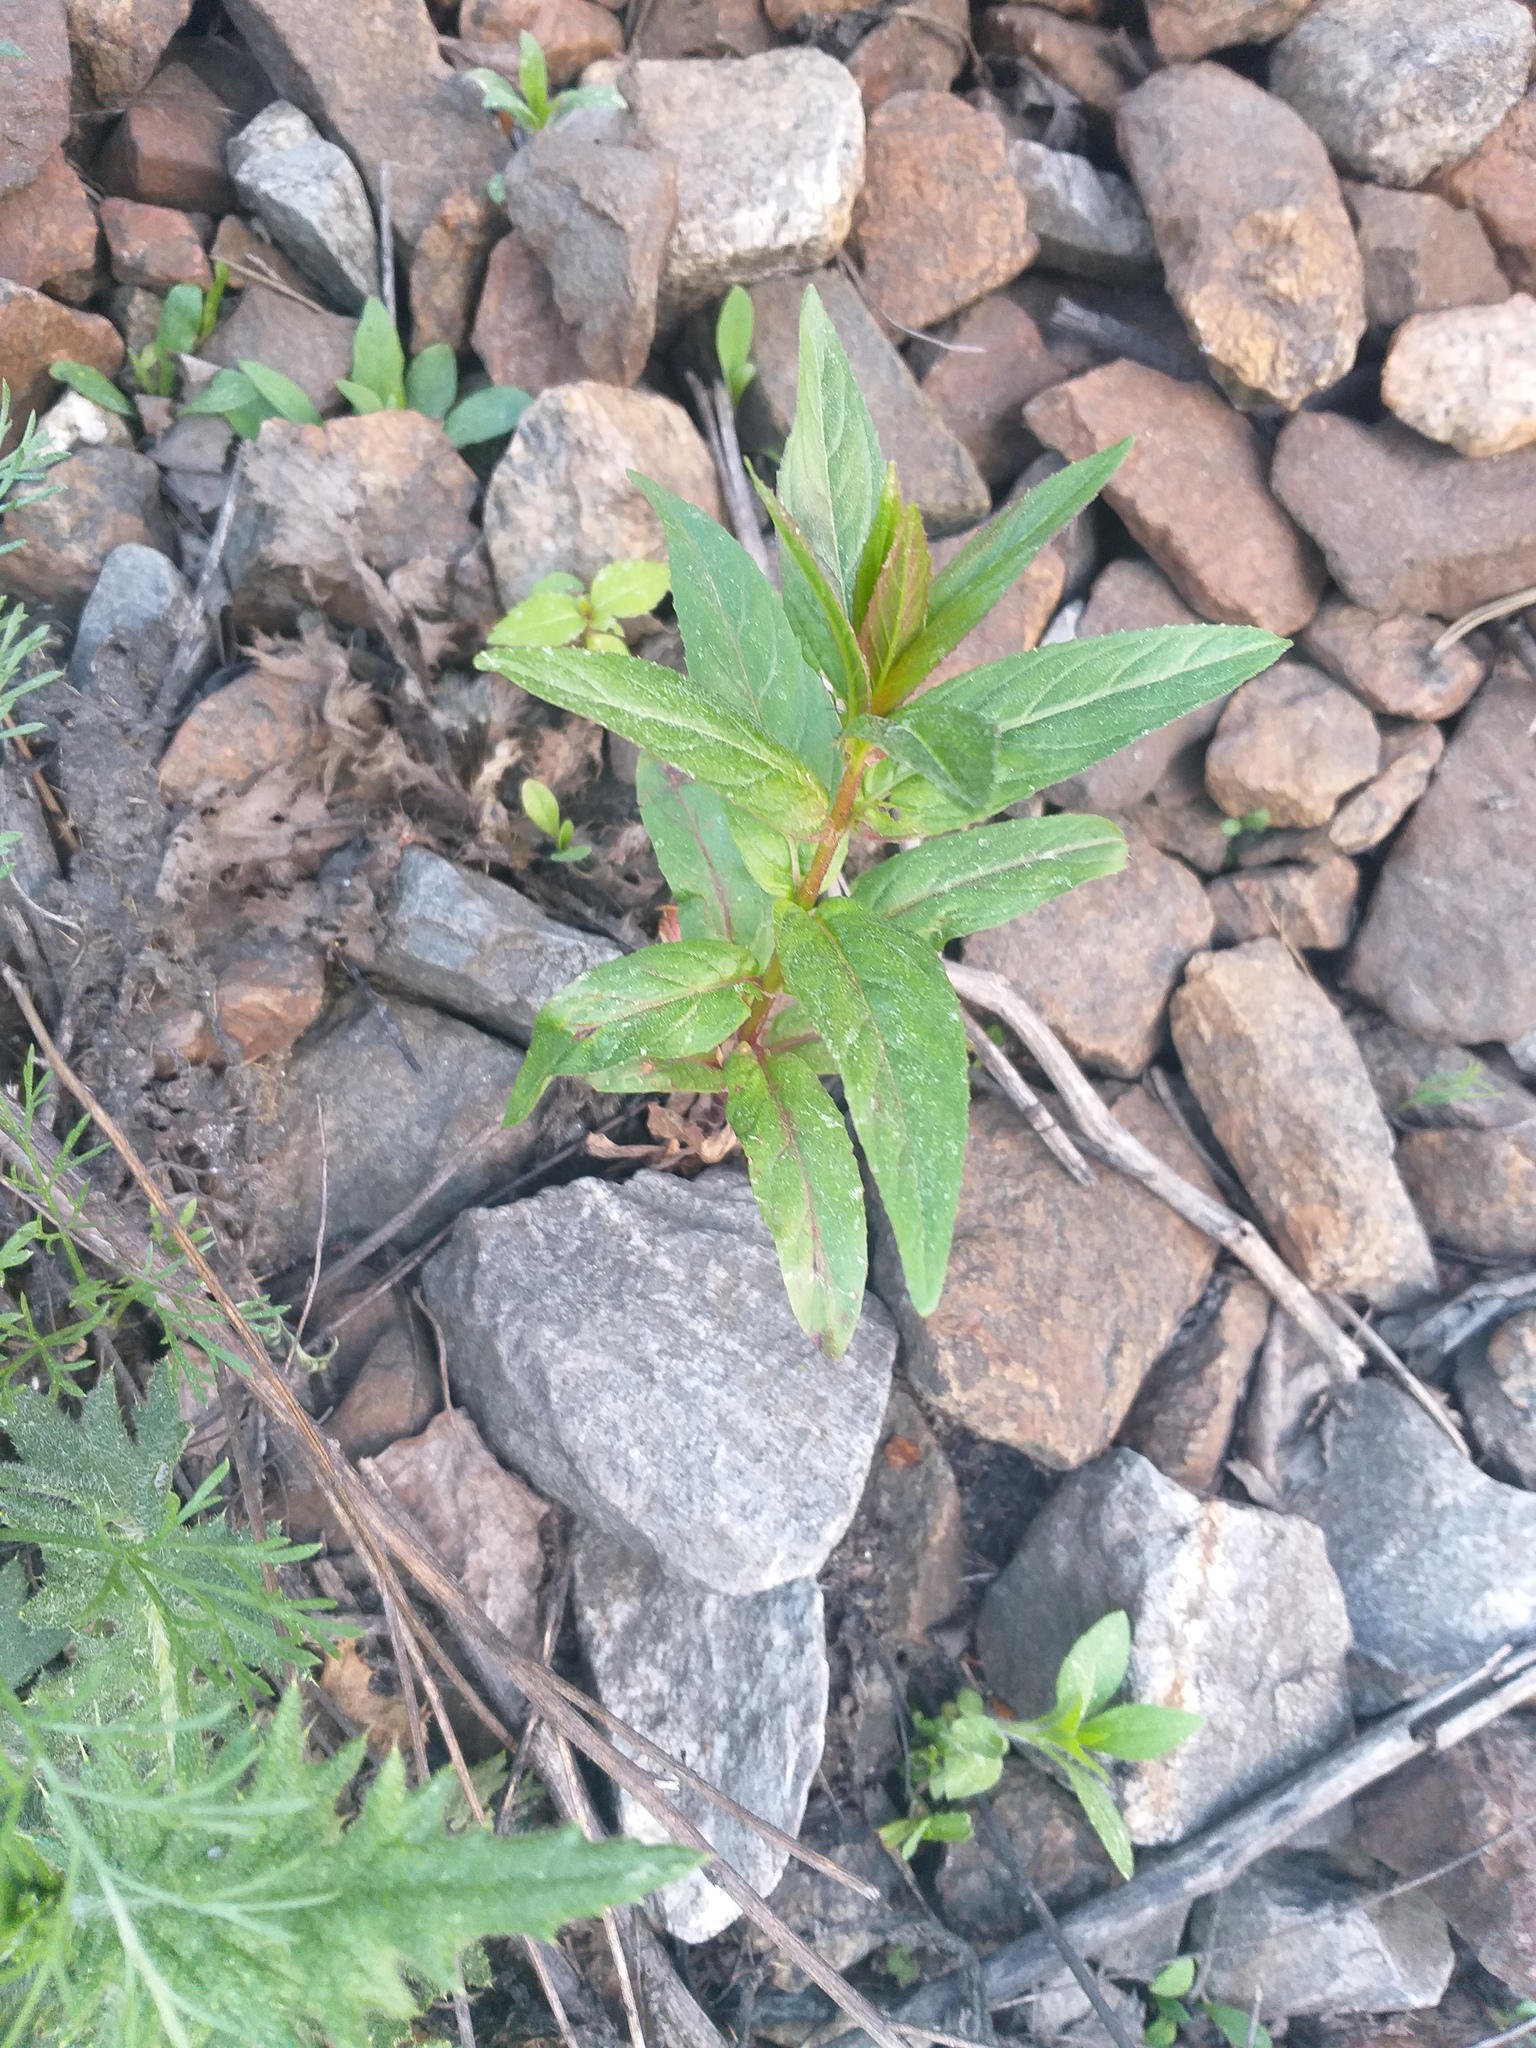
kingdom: Plantae
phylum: Tracheophyta
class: Magnoliopsida
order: Myrtales
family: Onagraceae
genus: Epilobium
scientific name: Epilobium
